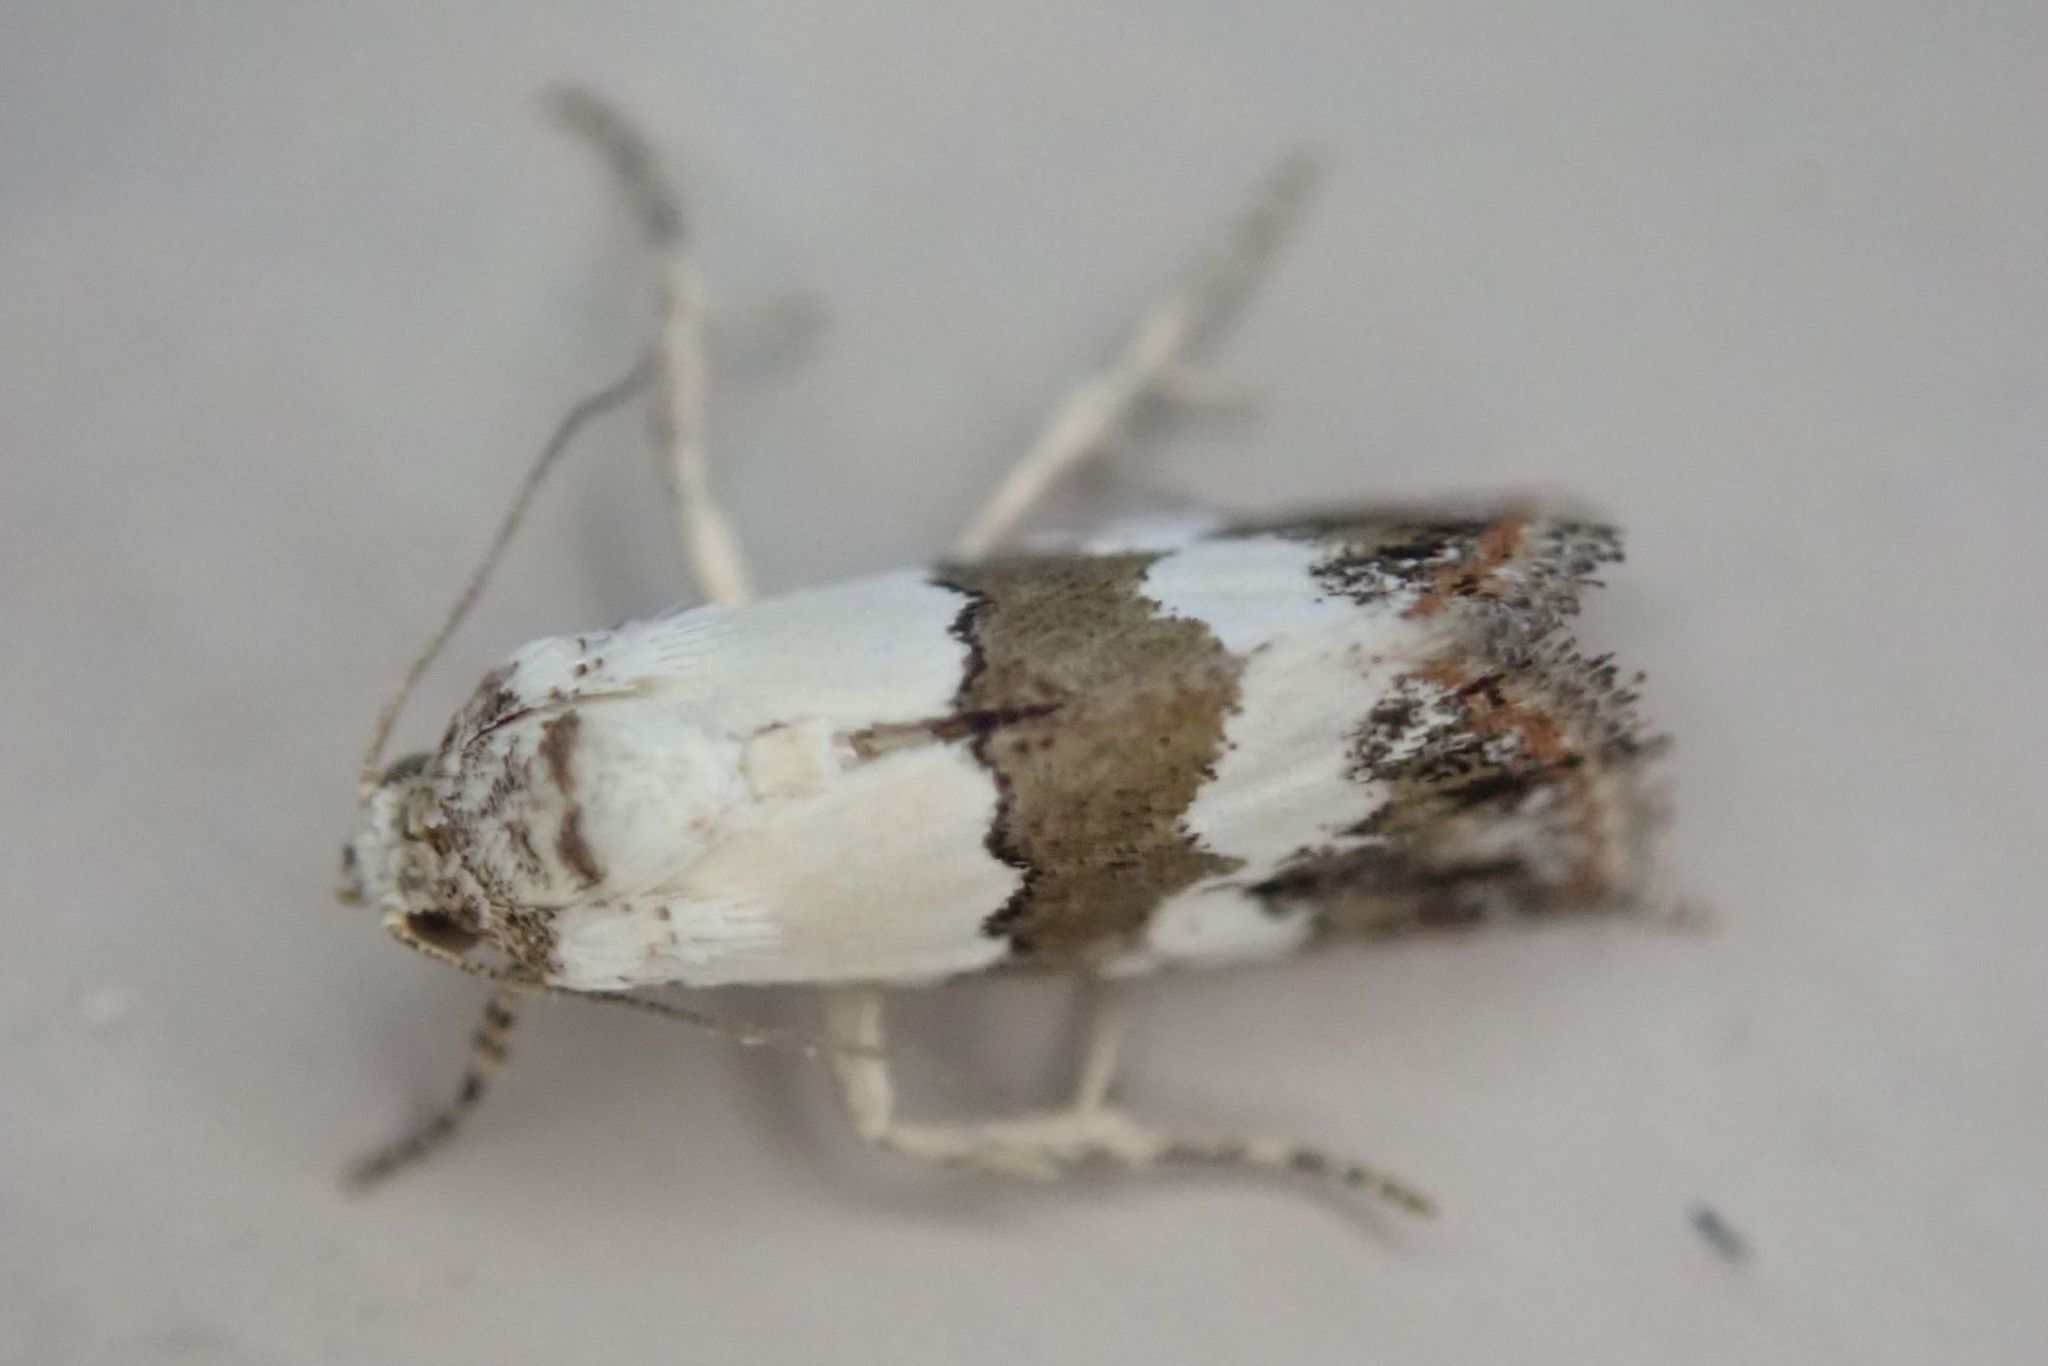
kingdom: Animalia
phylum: Arthropoda
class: Insecta
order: Lepidoptera
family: Noctuidae
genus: Maliattha
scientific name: Maliattha subblandula
